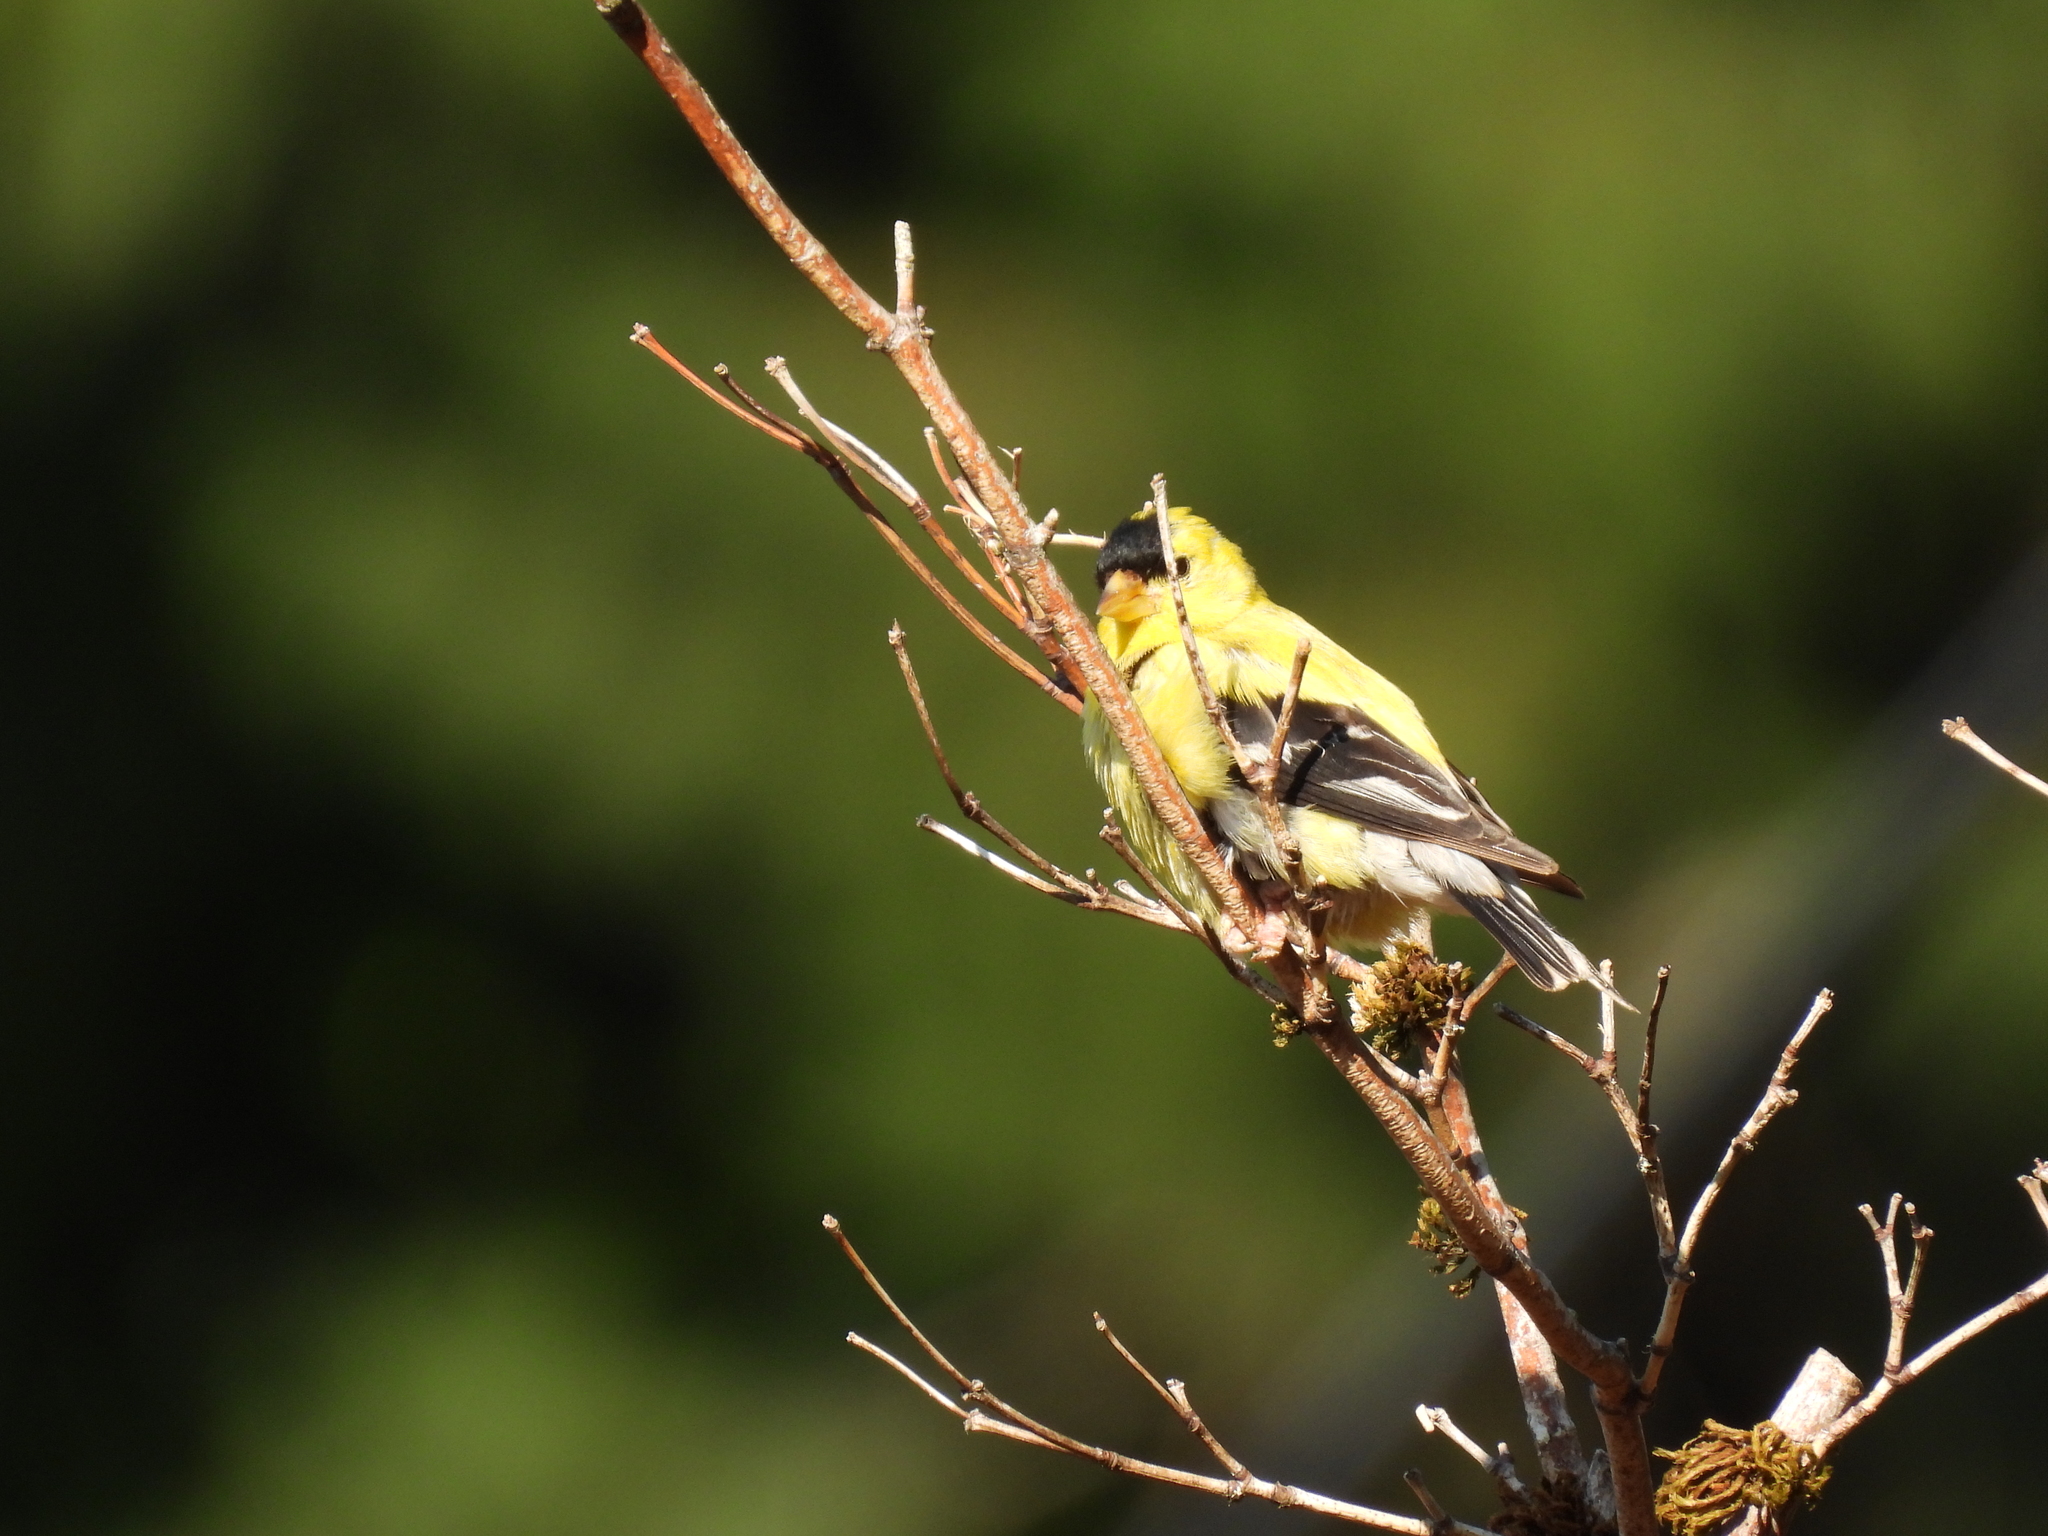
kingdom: Animalia
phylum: Chordata
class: Aves
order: Passeriformes
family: Fringillidae
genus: Spinus
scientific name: Spinus tristis
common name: American goldfinch
